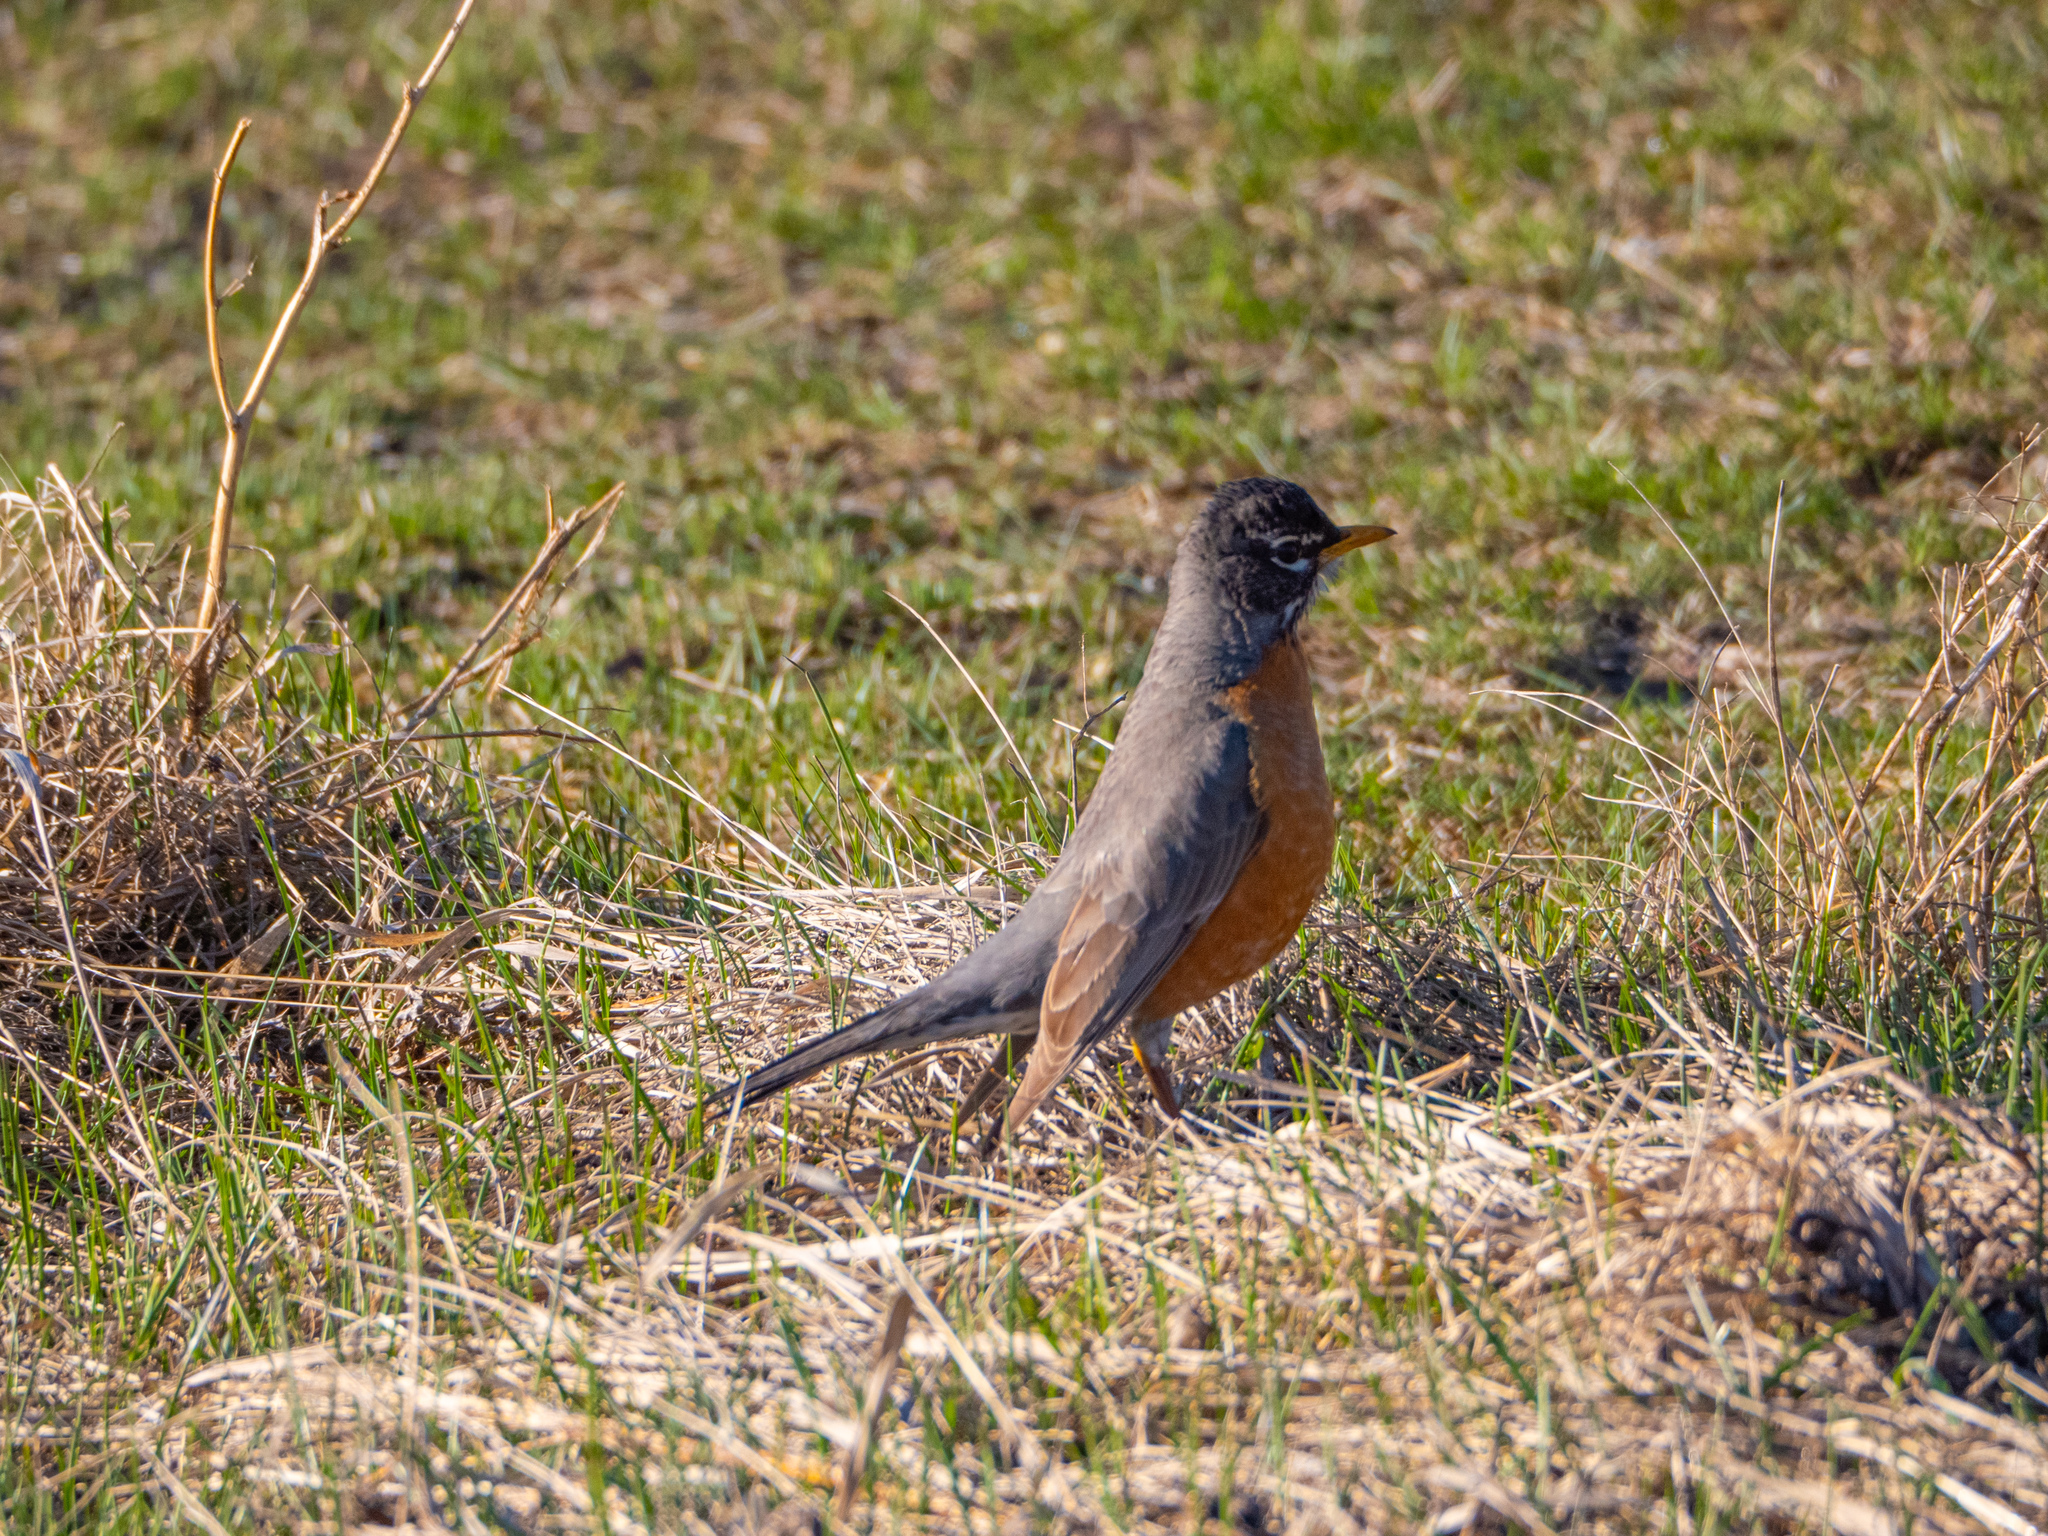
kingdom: Animalia
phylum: Chordata
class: Aves
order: Passeriformes
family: Turdidae
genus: Turdus
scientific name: Turdus migratorius
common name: American robin
